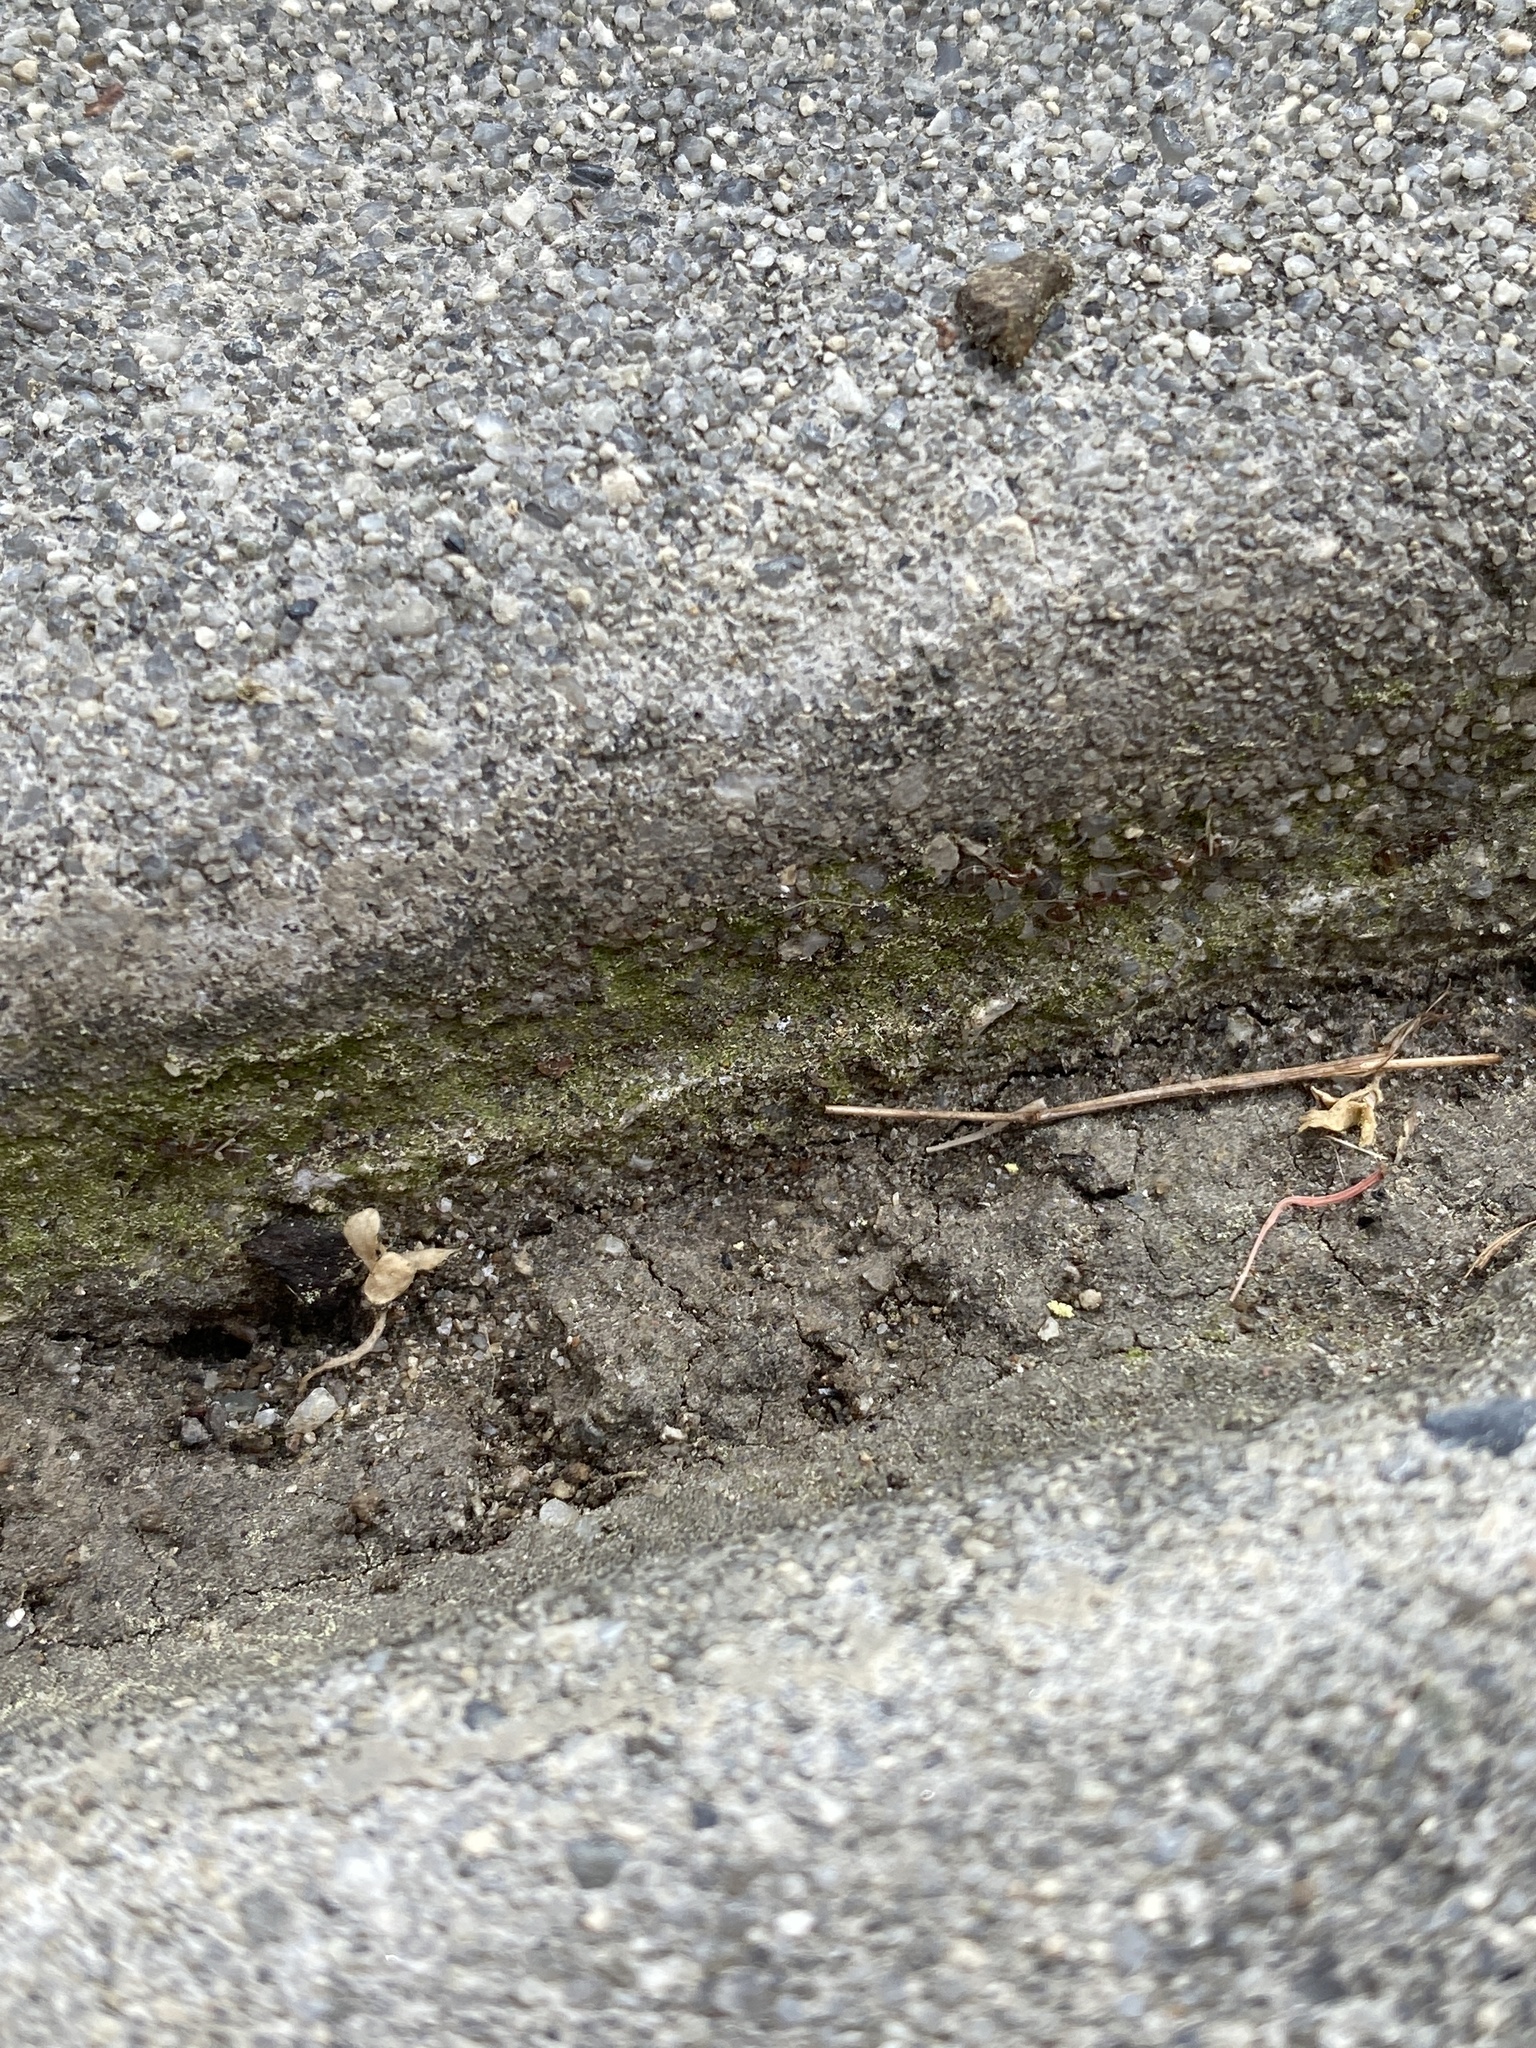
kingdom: Animalia
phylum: Arthropoda
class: Insecta
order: Hymenoptera
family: Formicidae
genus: Linepithema
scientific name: Linepithema humile
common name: Argentine ant
